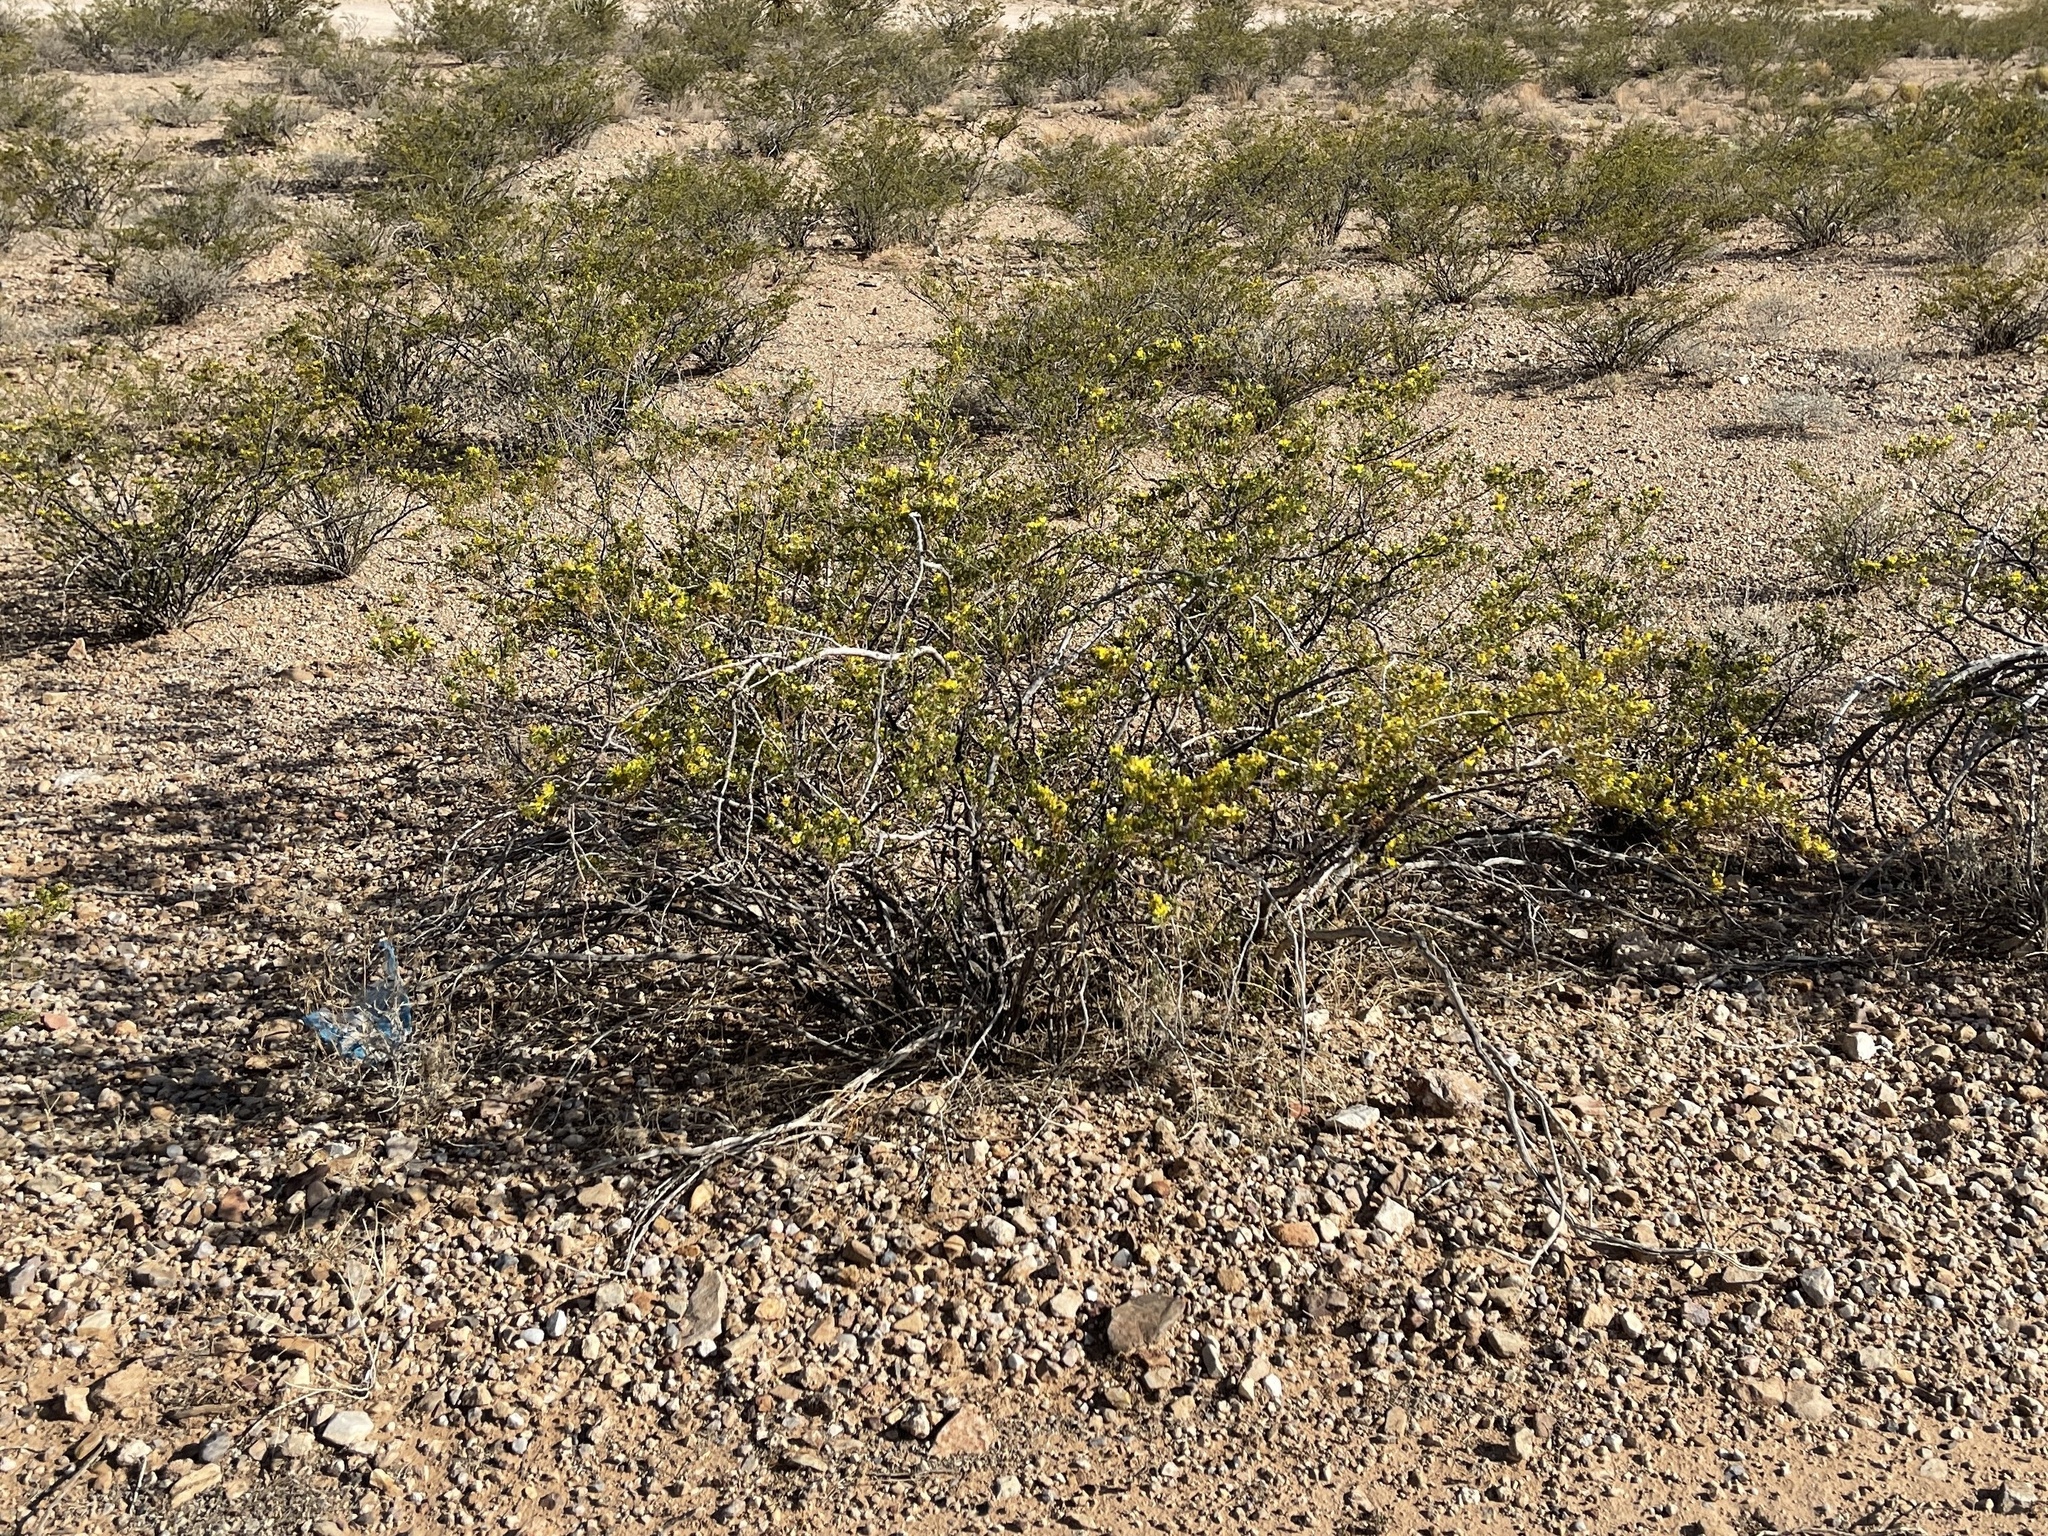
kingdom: Plantae
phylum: Tracheophyta
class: Magnoliopsida
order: Zygophyllales
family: Zygophyllaceae
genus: Larrea
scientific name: Larrea tridentata
